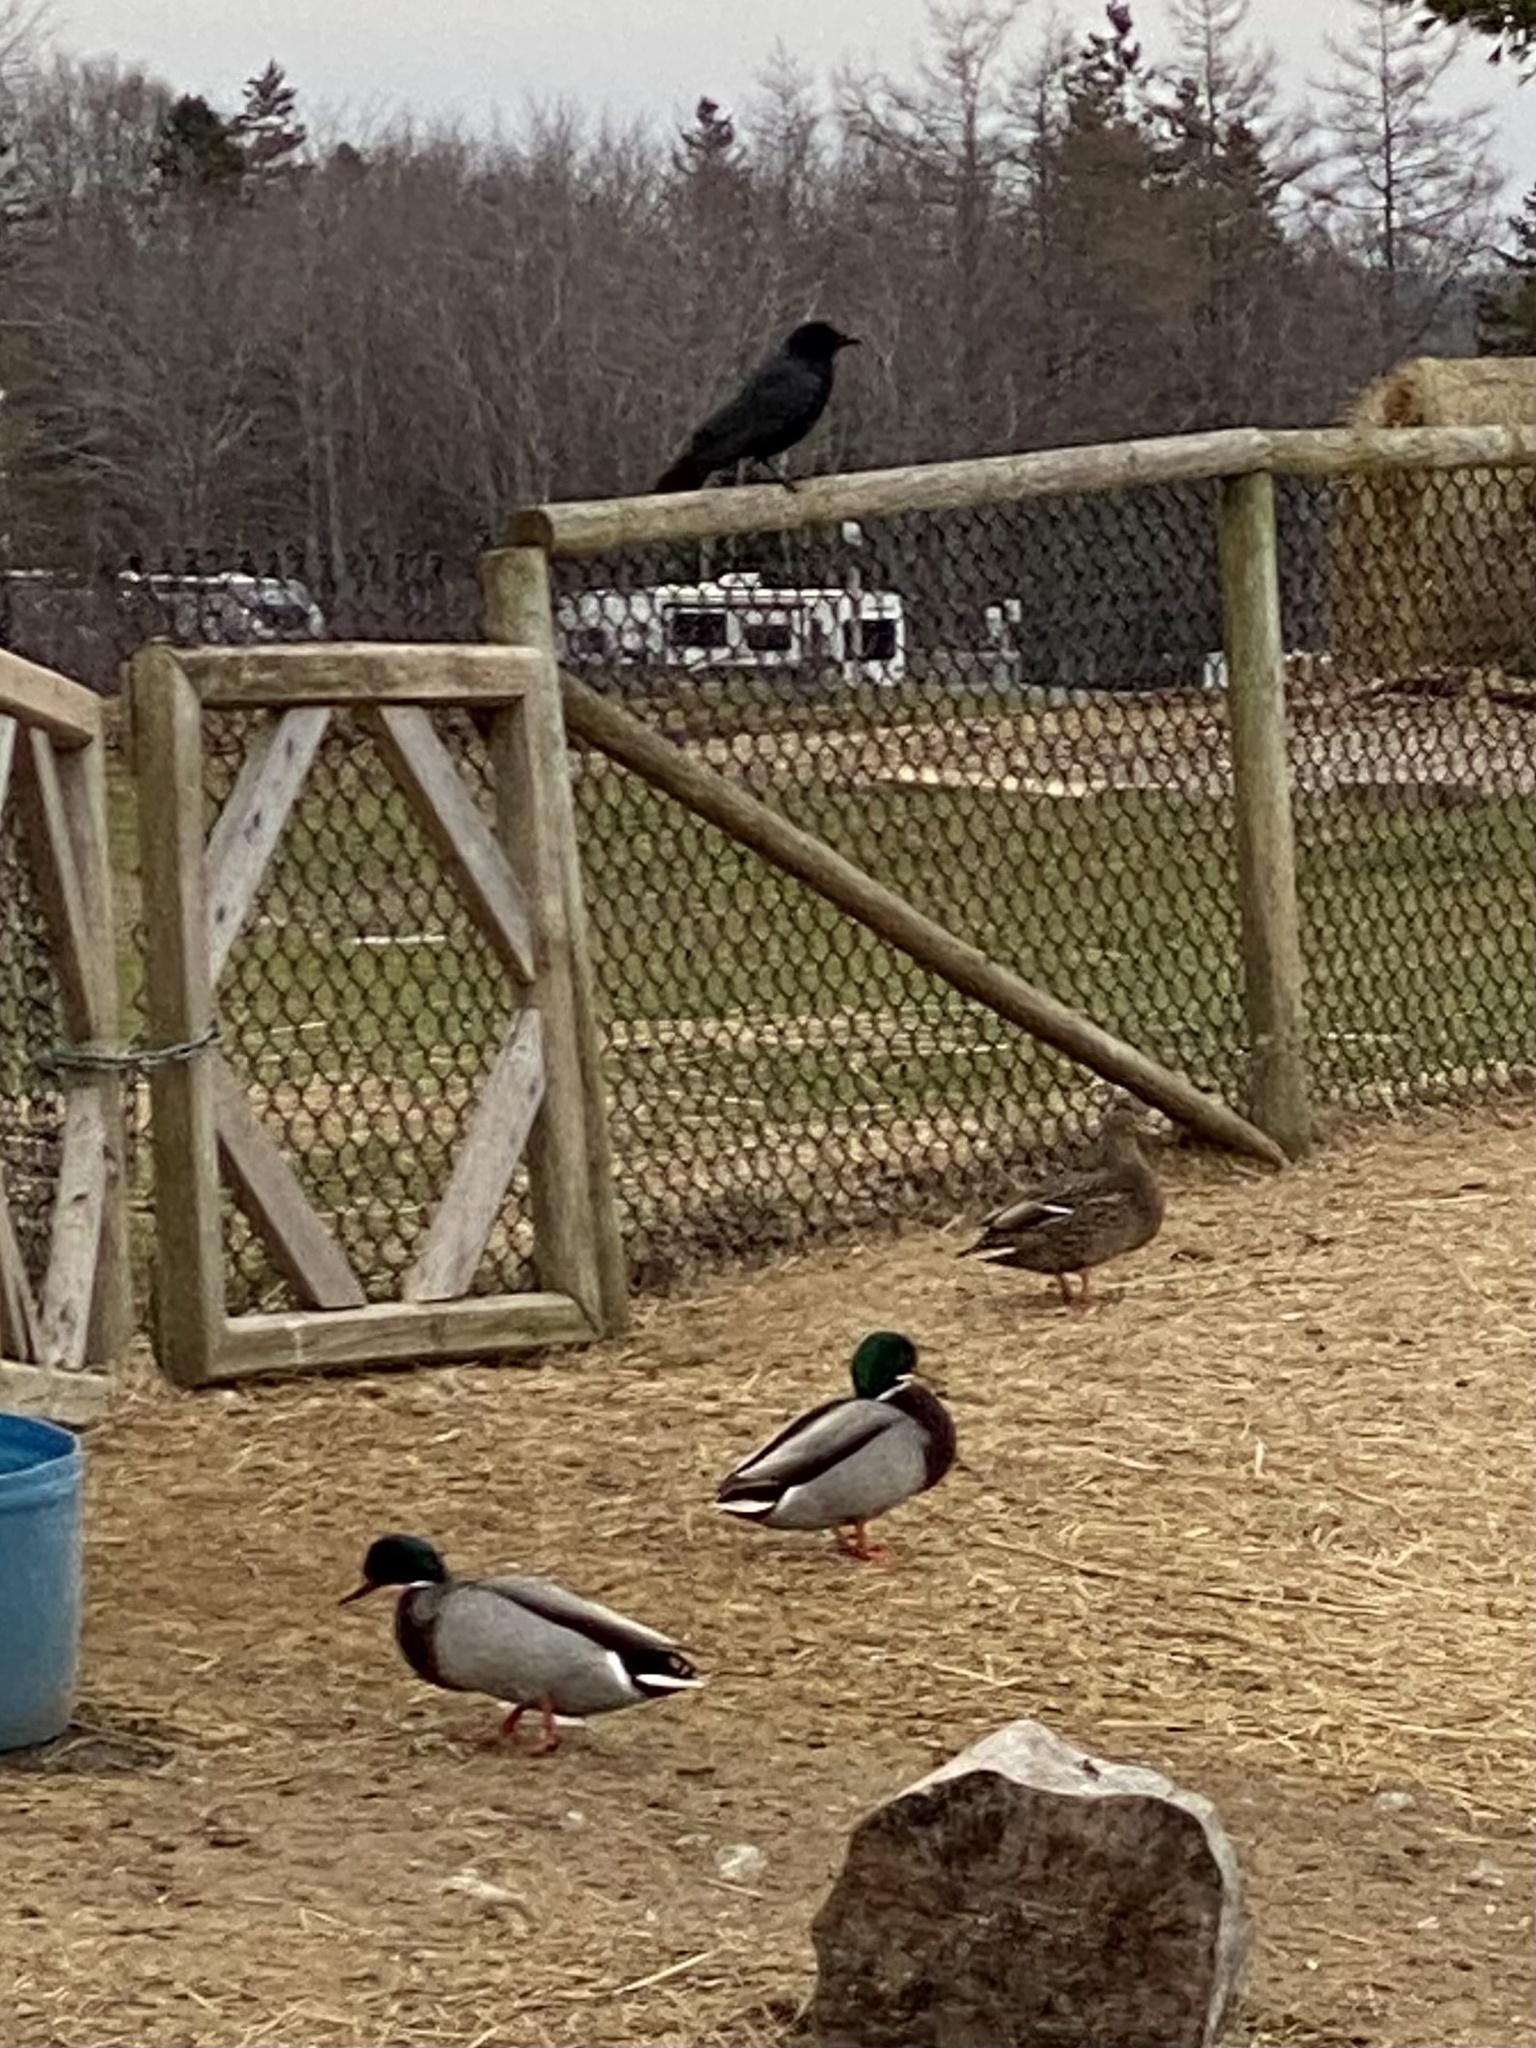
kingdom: Animalia
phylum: Chordata
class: Aves
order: Anseriformes
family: Anatidae
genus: Anas
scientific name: Anas platyrhynchos
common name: Mallard
